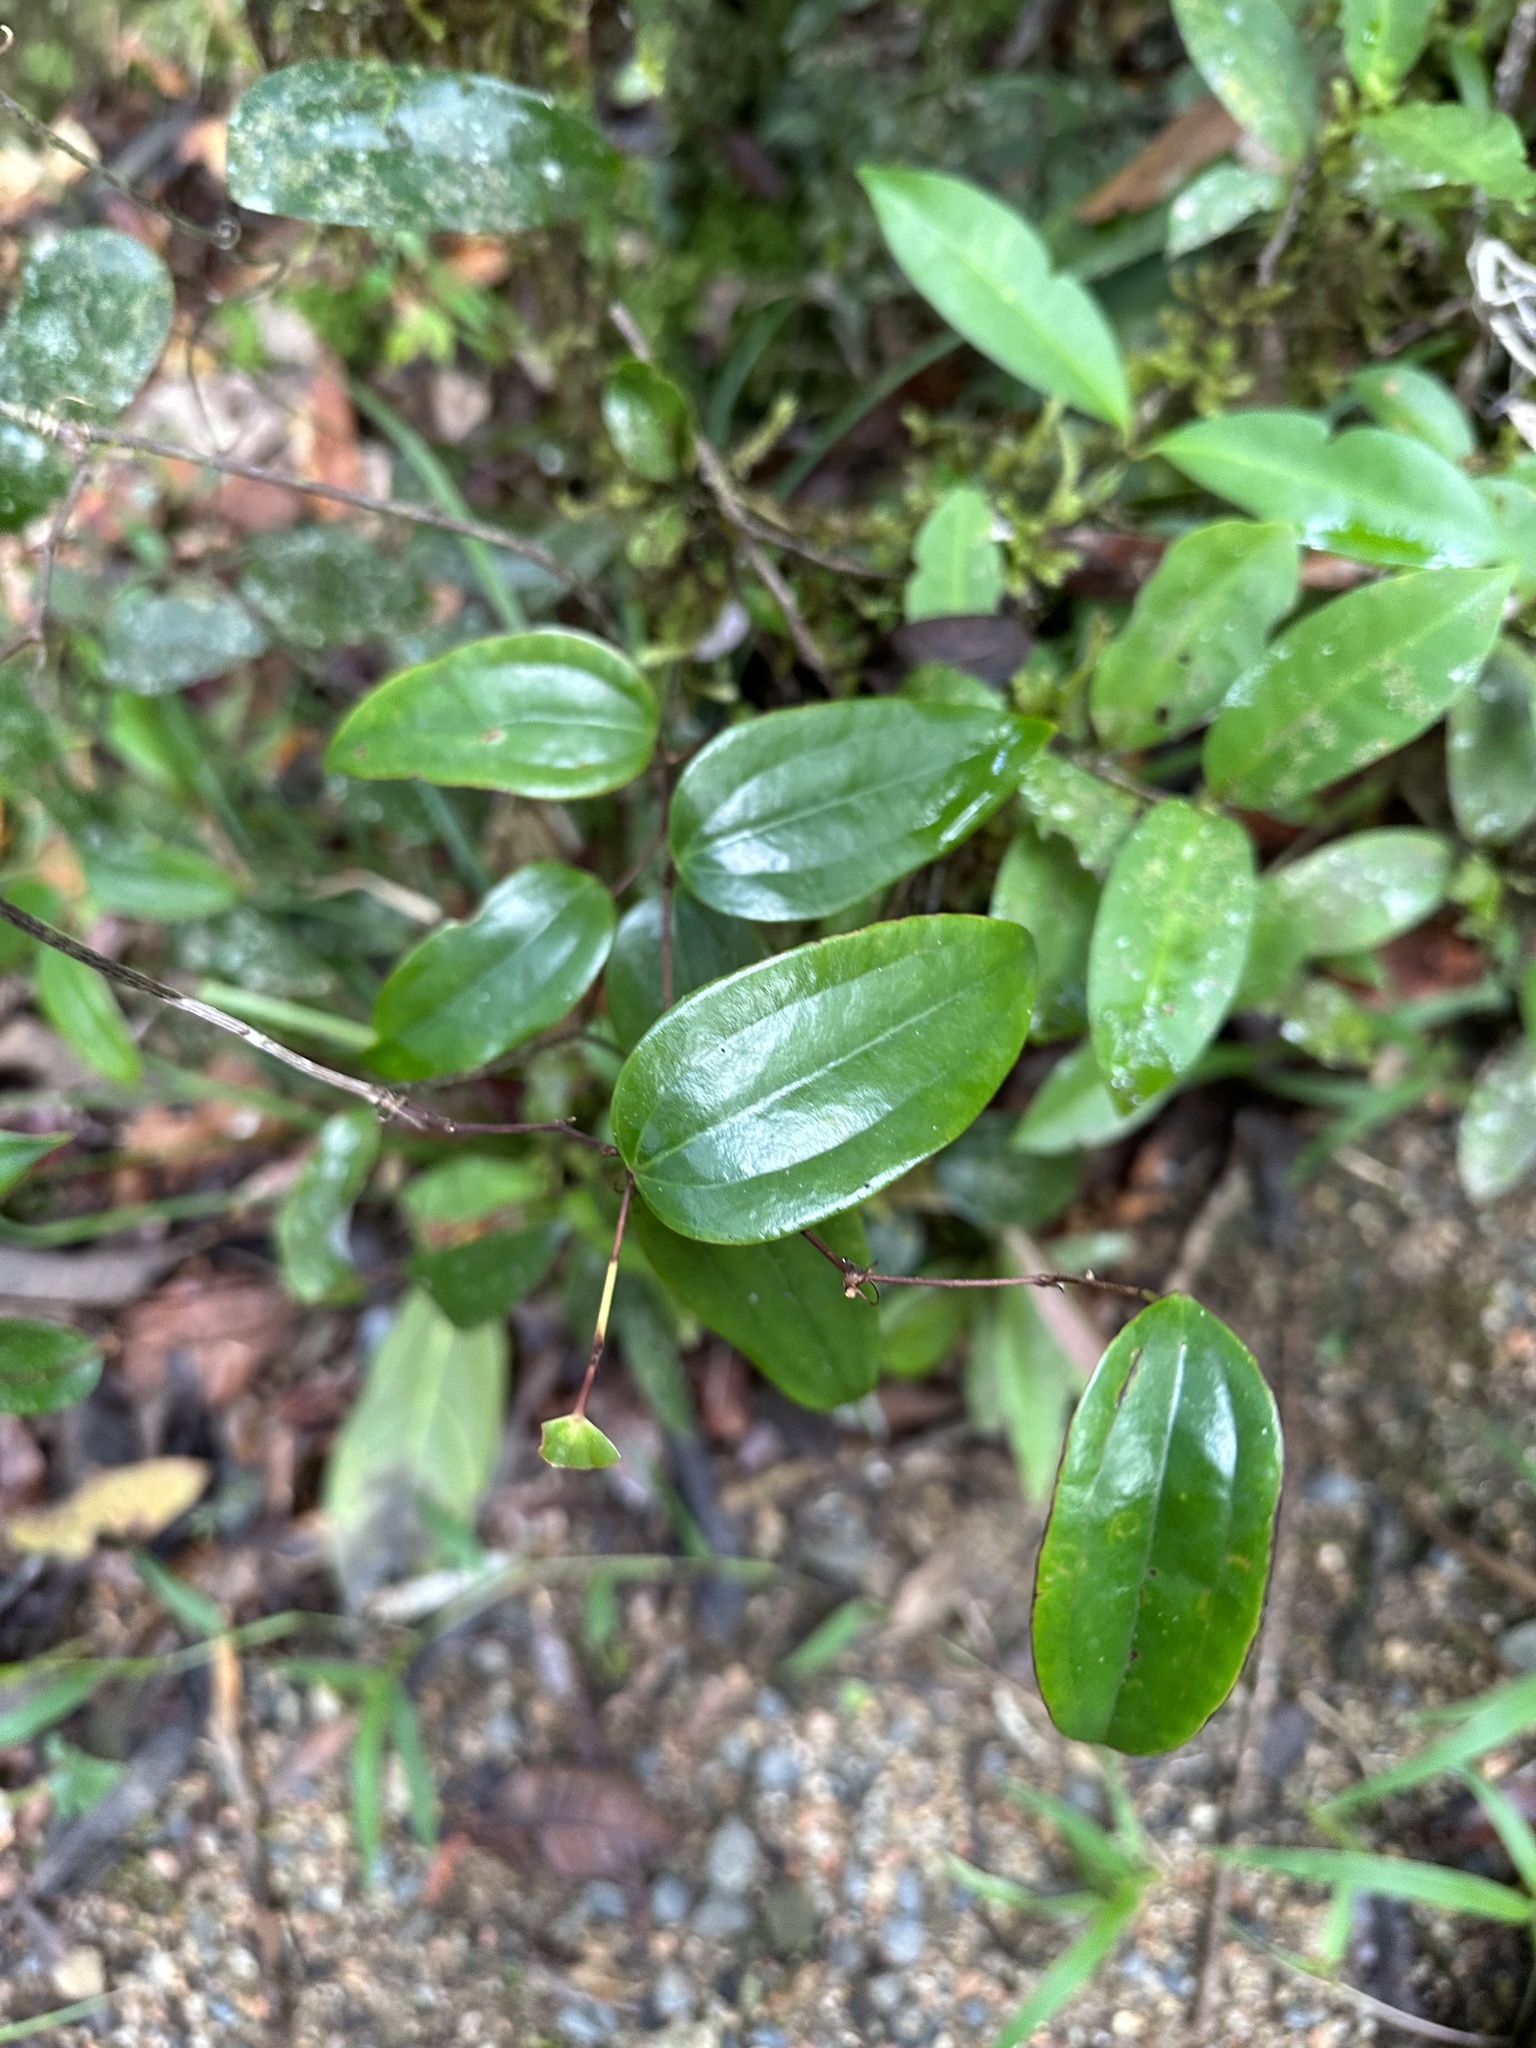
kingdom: Plantae
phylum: Tracheophyta
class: Liliopsida
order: Liliales
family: Smilacaceae
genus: Smilax
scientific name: Smilax glyciphylla
